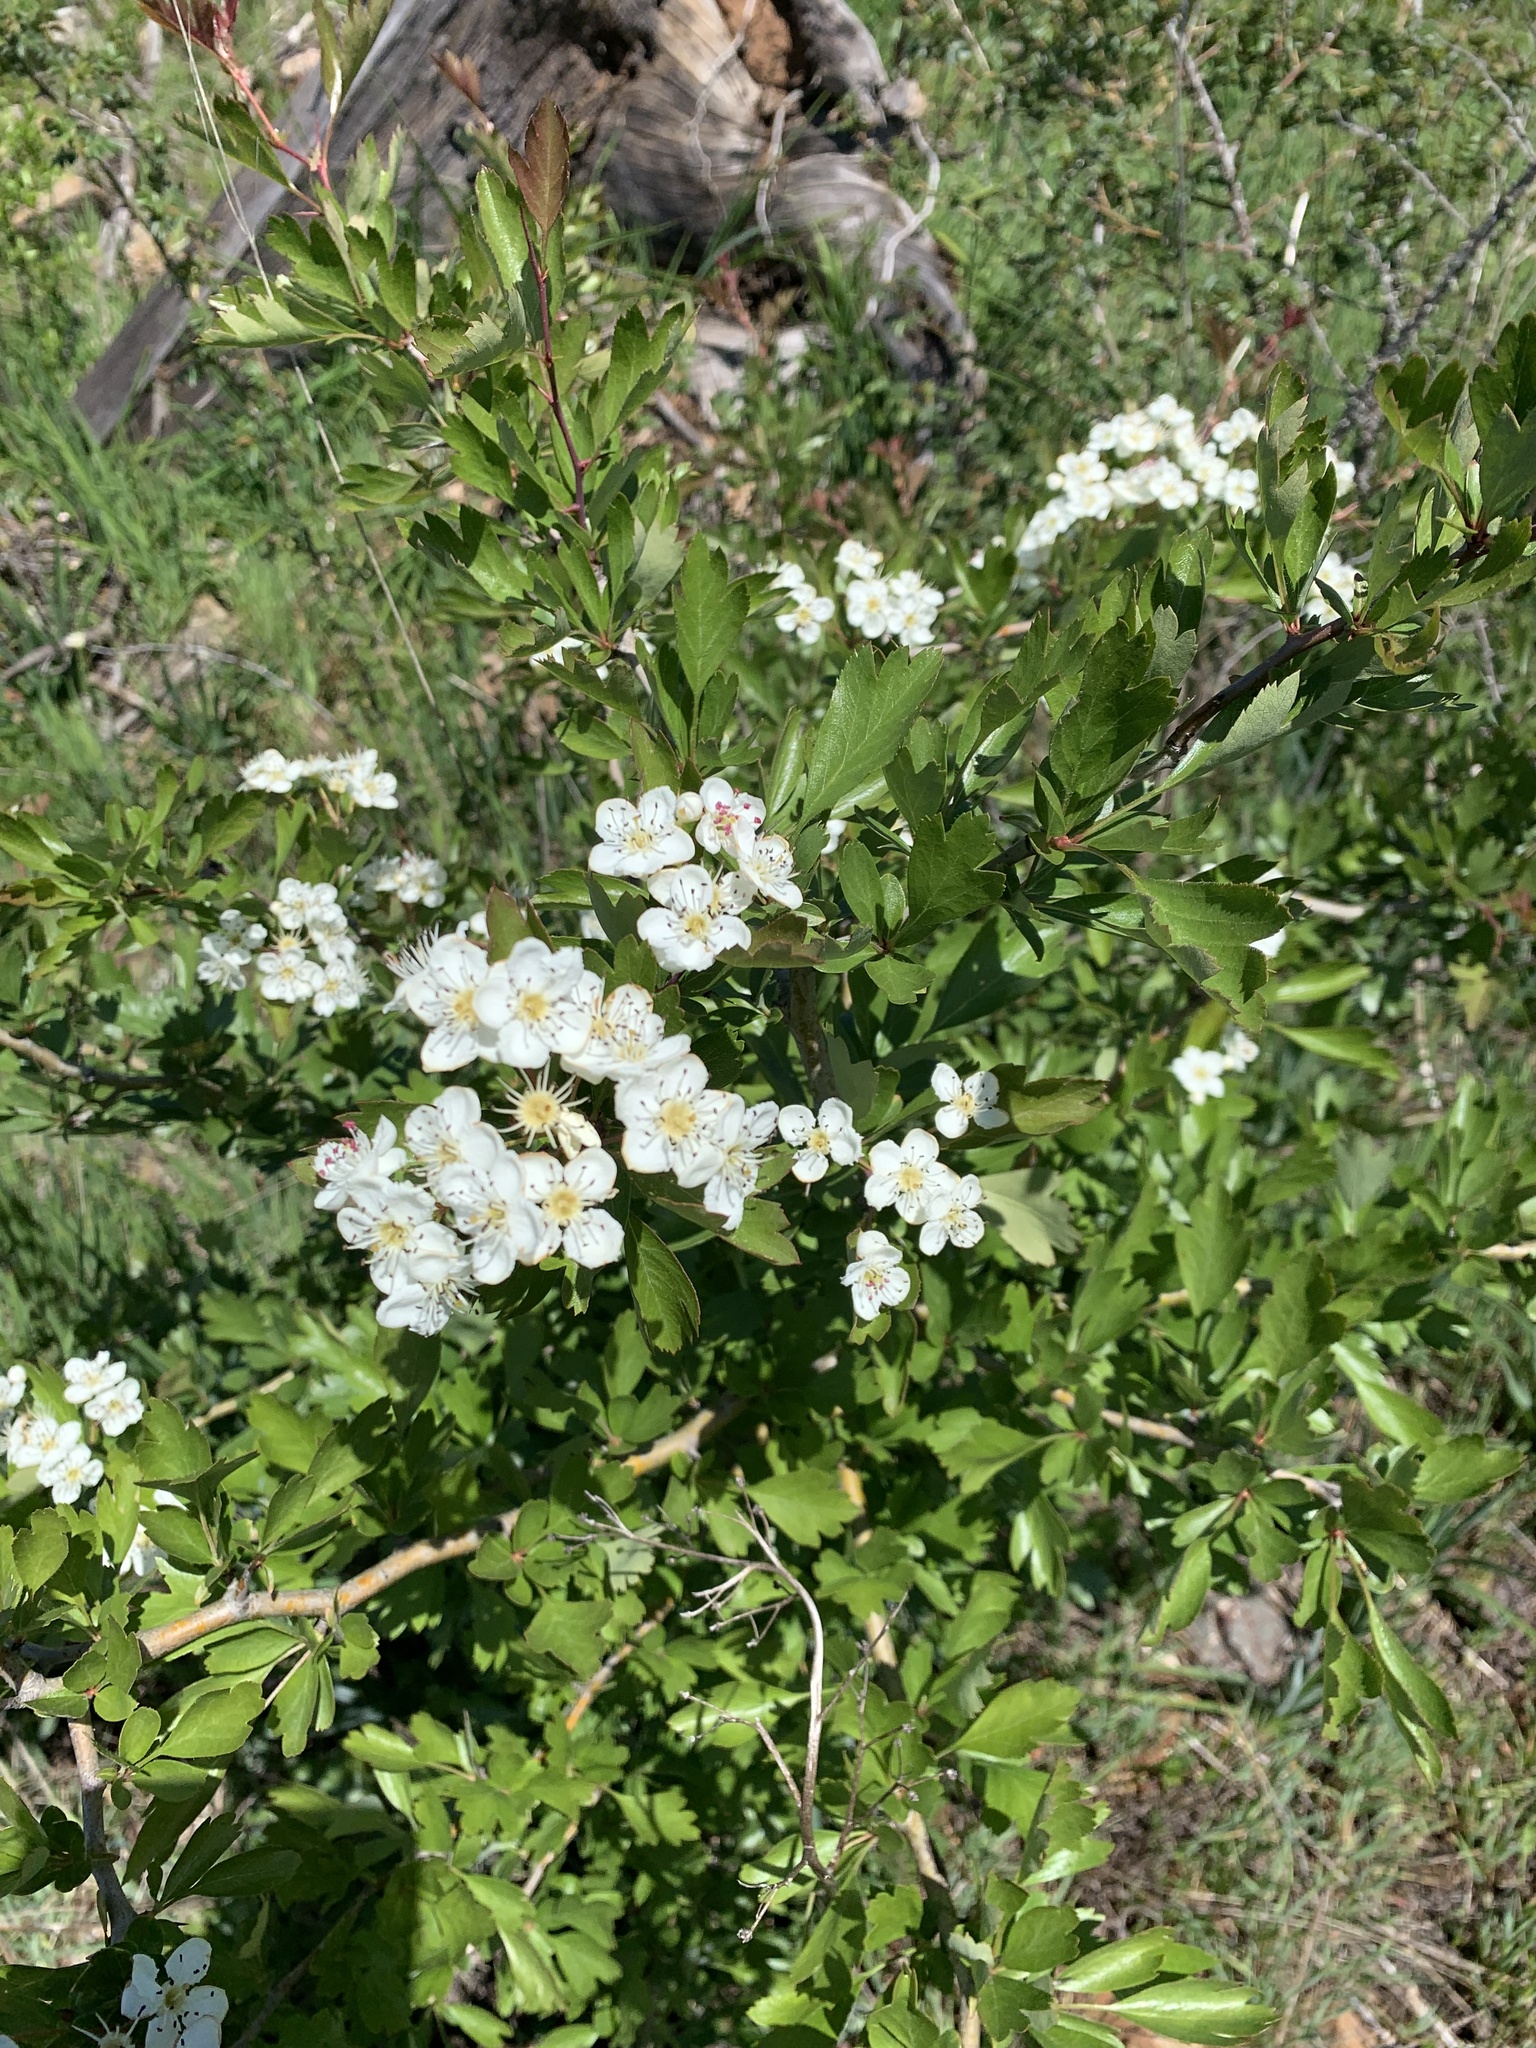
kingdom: Plantae
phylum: Tracheophyta
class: Magnoliopsida
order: Rosales
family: Rosaceae
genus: Crataegus
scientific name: Crataegus monogyna
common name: Hawthorn
